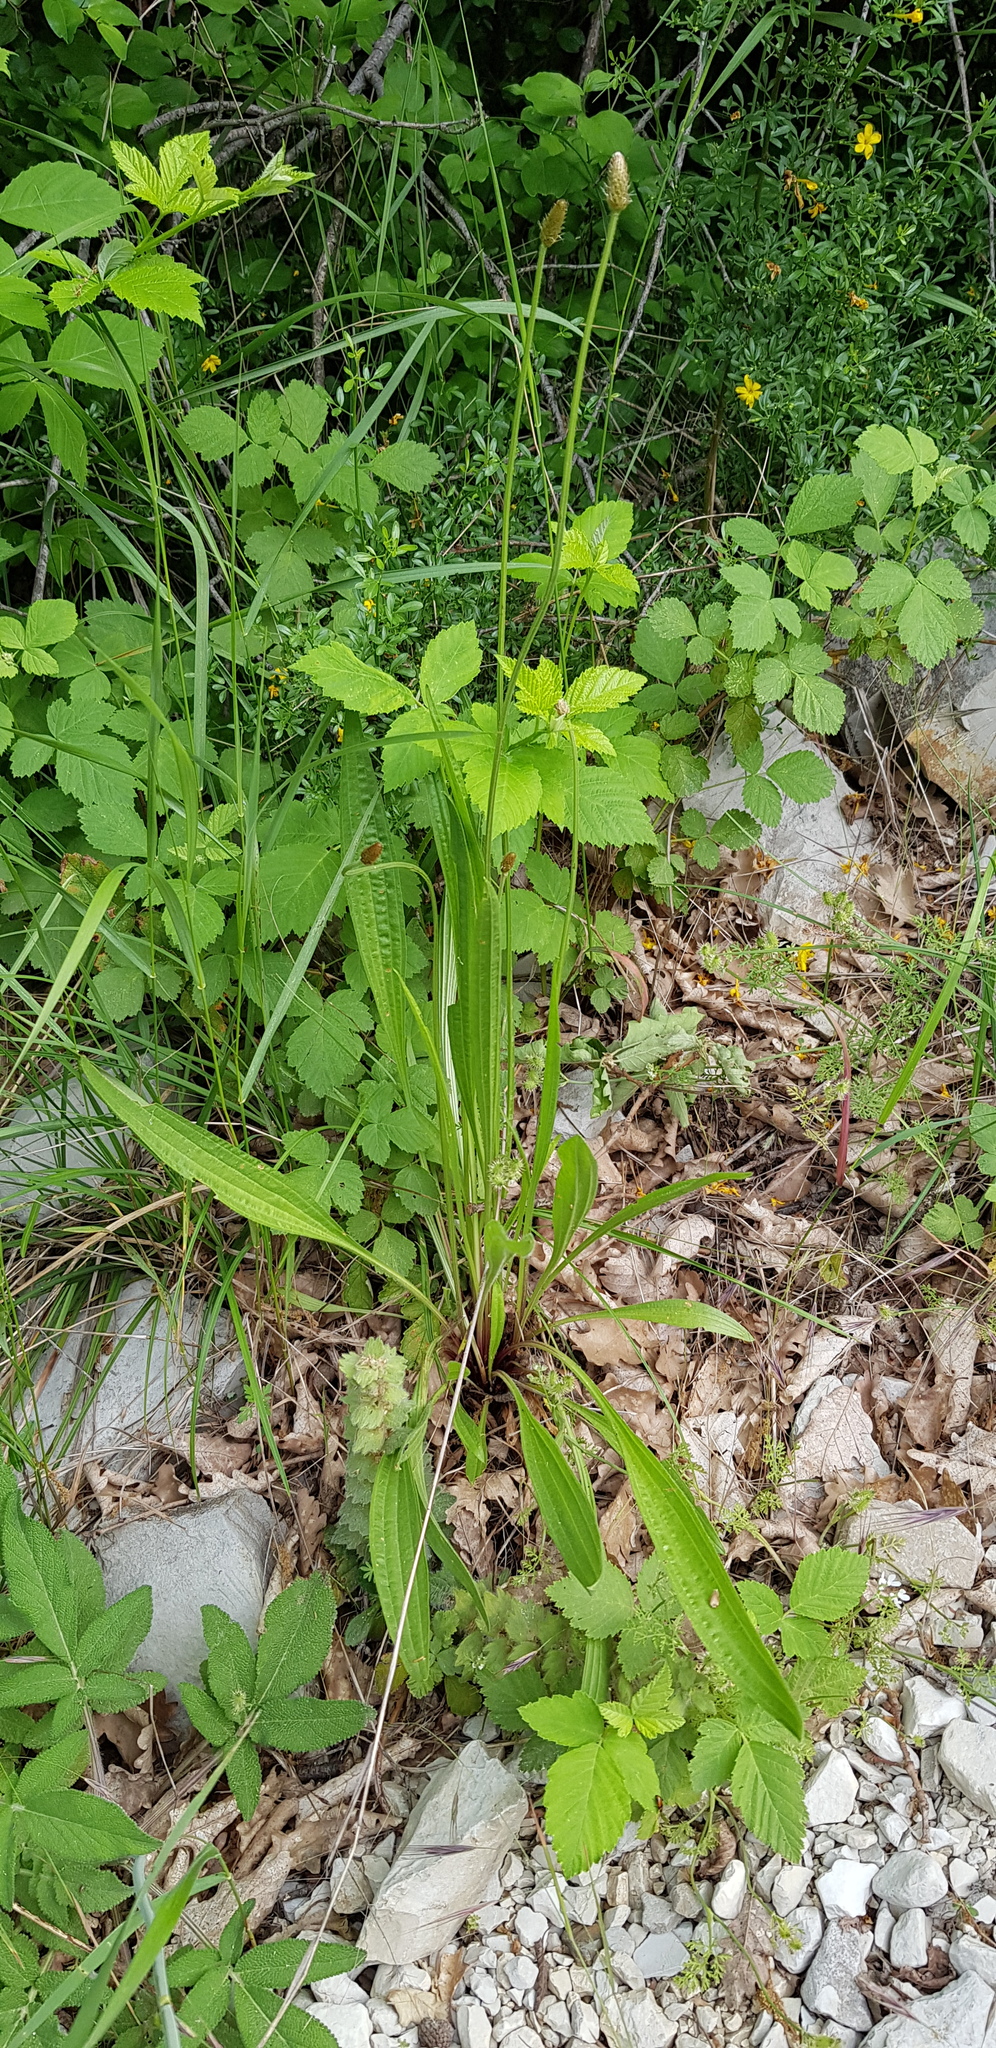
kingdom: Plantae
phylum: Tracheophyta
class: Magnoliopsida
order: Lamiales
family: Plantaginaceae
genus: Plantago
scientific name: Plantago lanceolata
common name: Ribwort plantain
